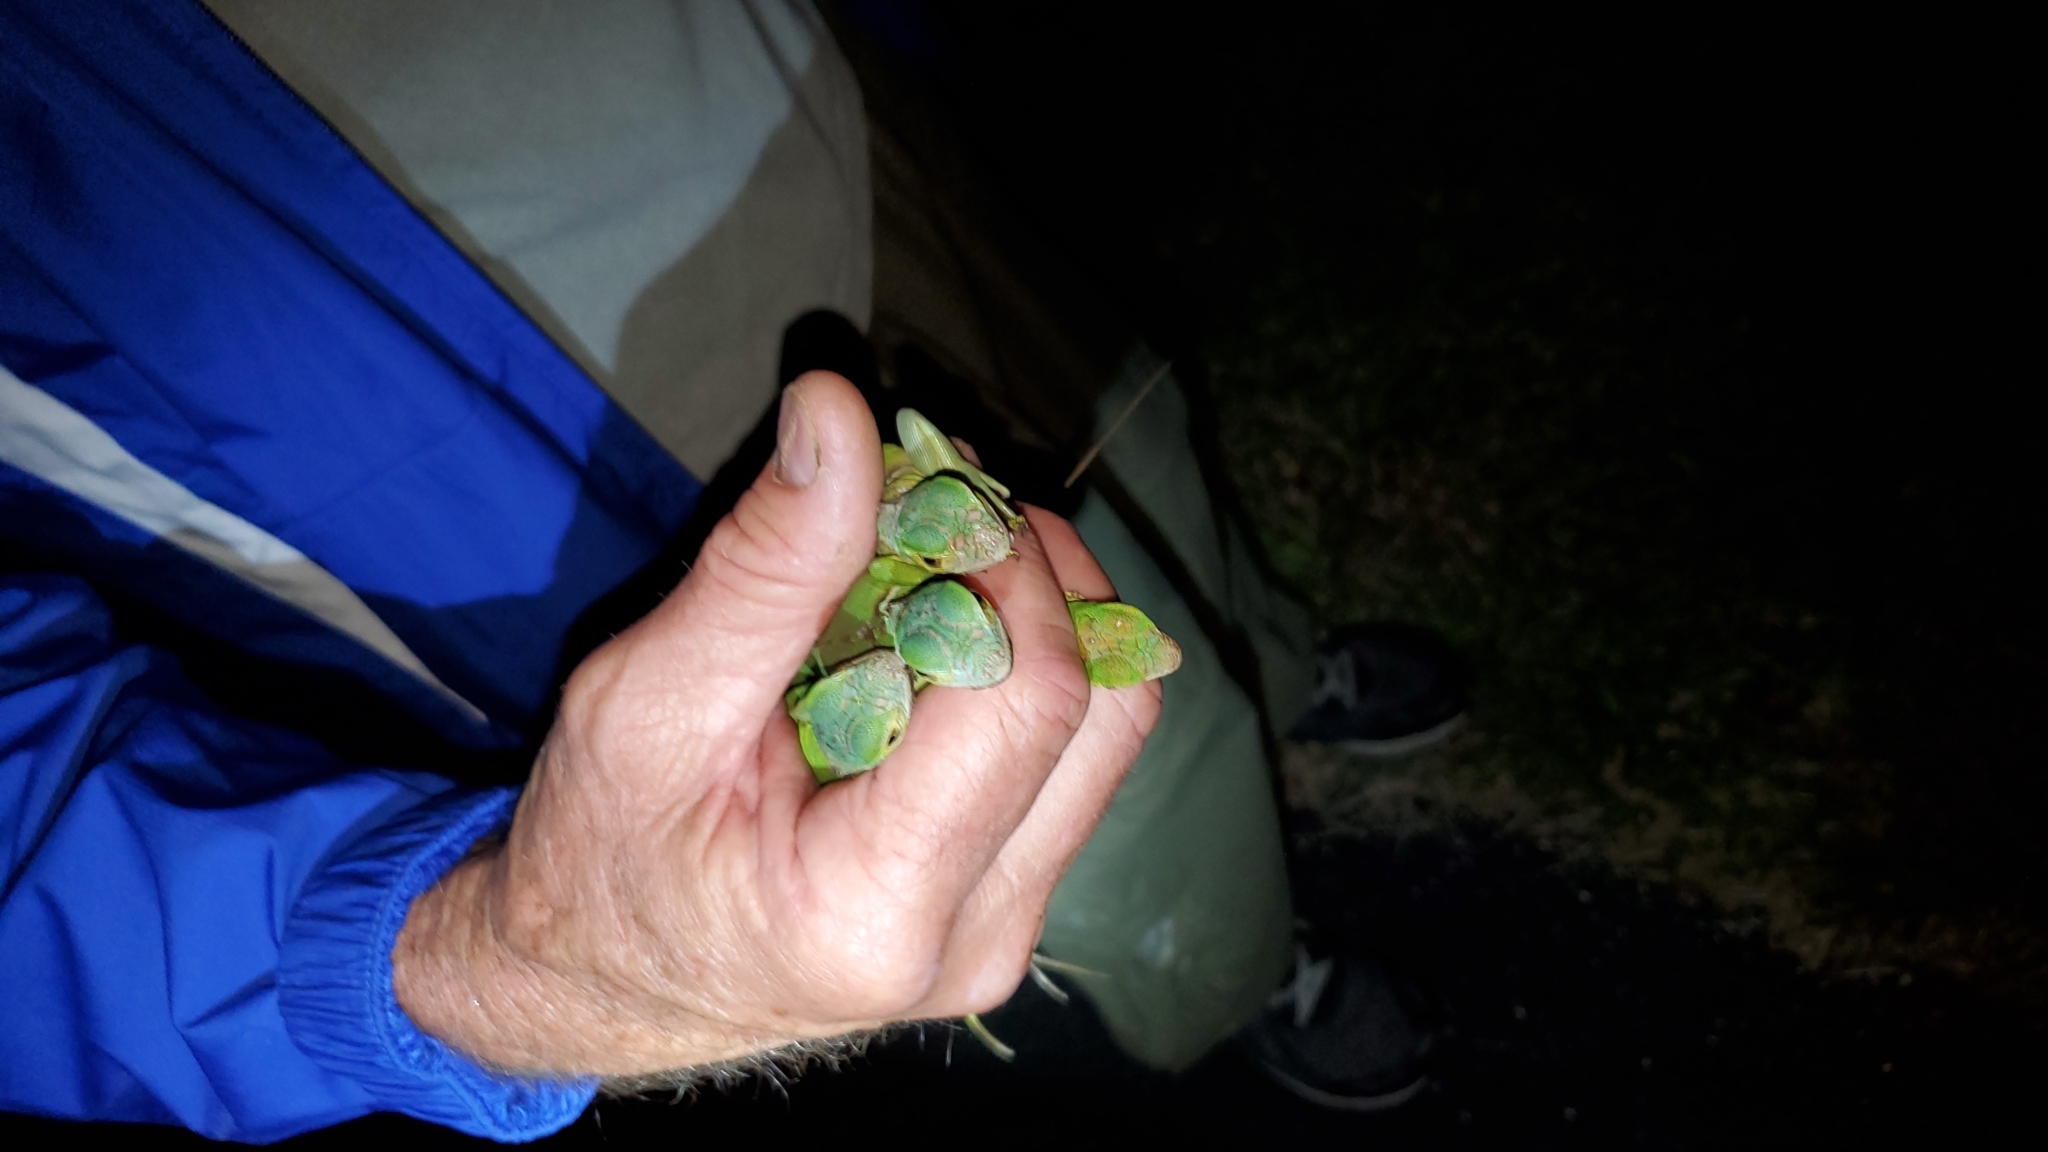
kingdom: Animalia
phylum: Chordata
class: Squamata
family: Iguanidae
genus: Iguana
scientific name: Iguana iguana
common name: Green iguana
